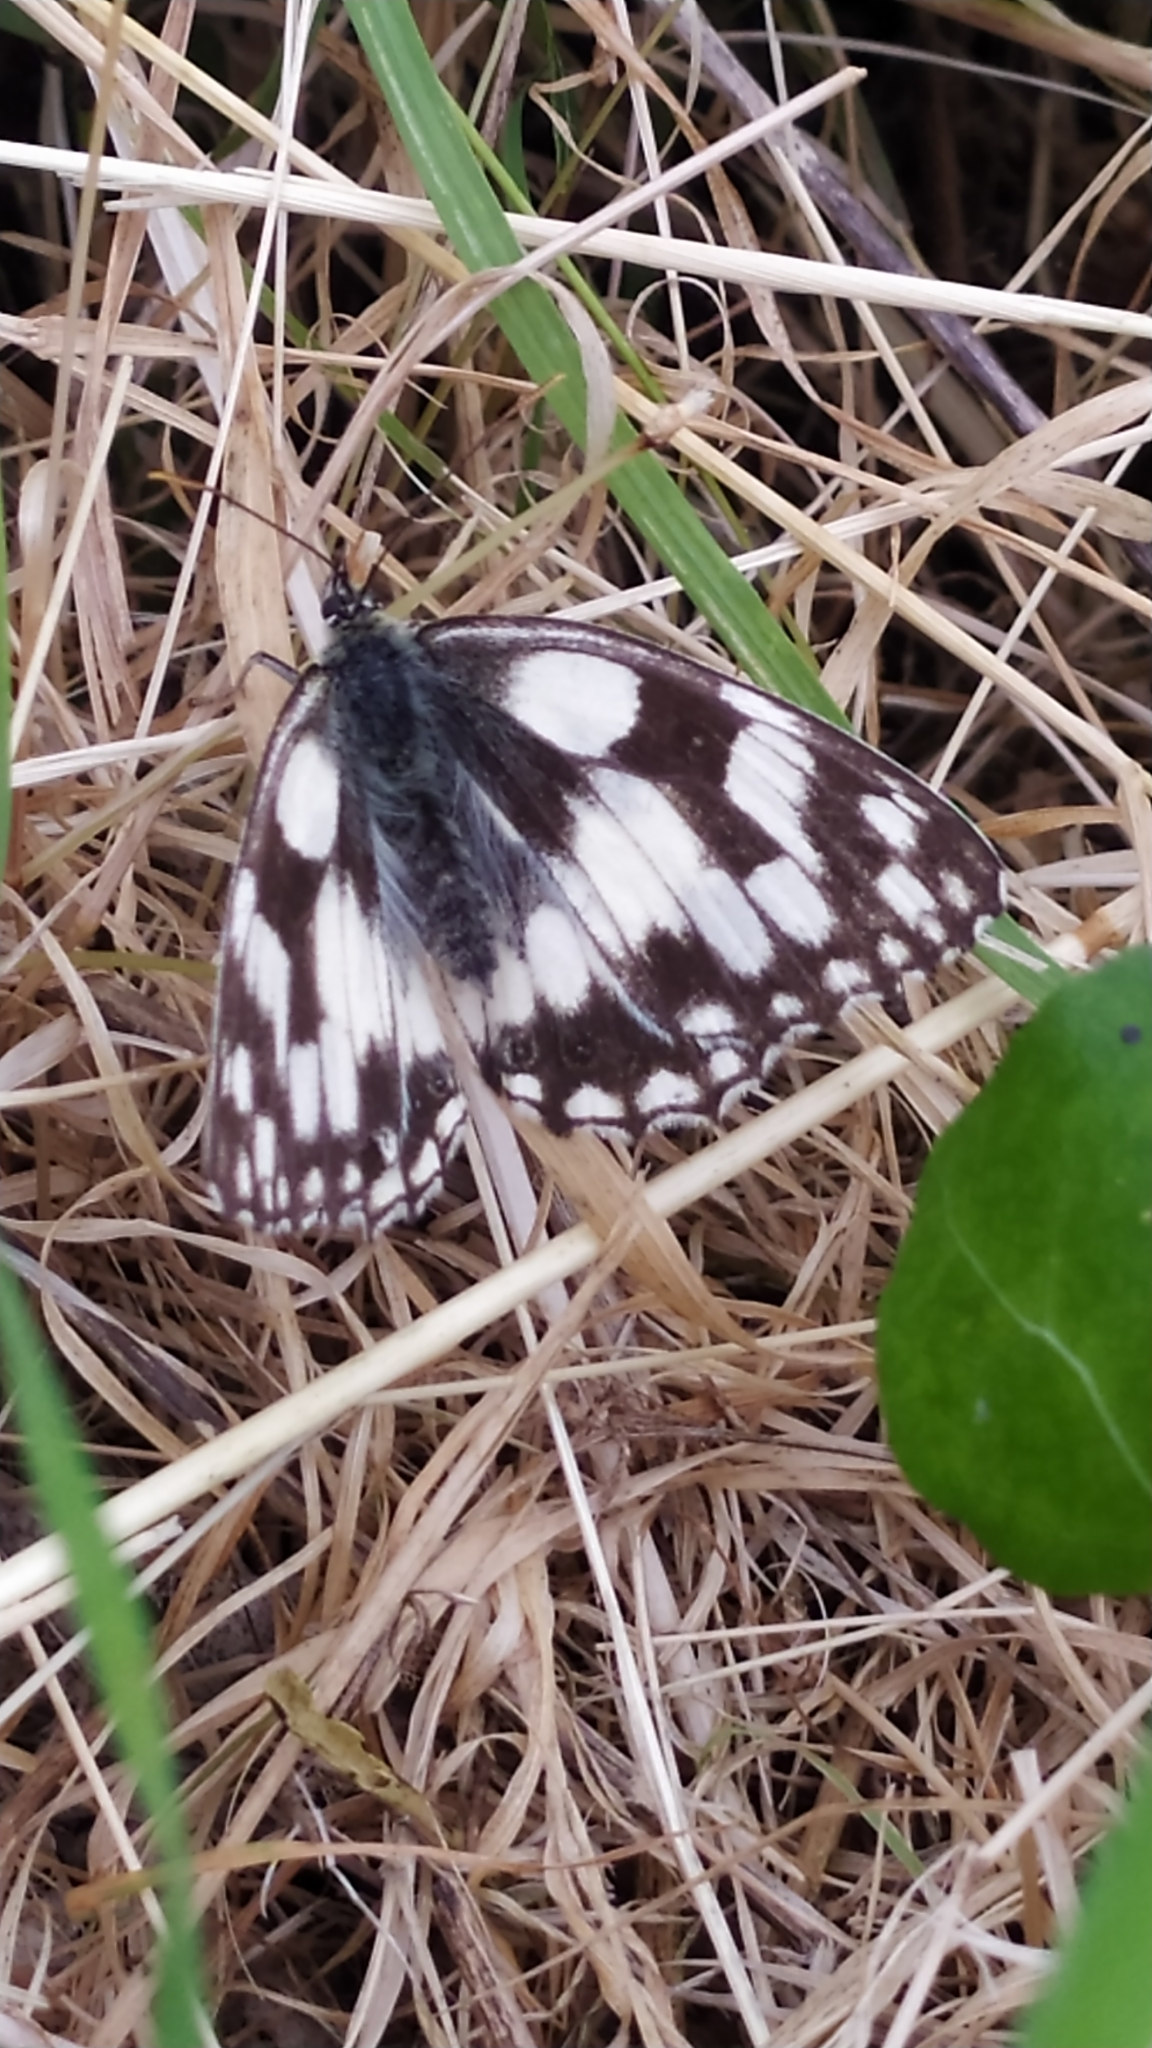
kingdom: Animalia
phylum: Arthropoda
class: Insecta
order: Lepidoptera
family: Nymphalidae
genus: Melanargia
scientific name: Melanargia galathea
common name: Marbled white
